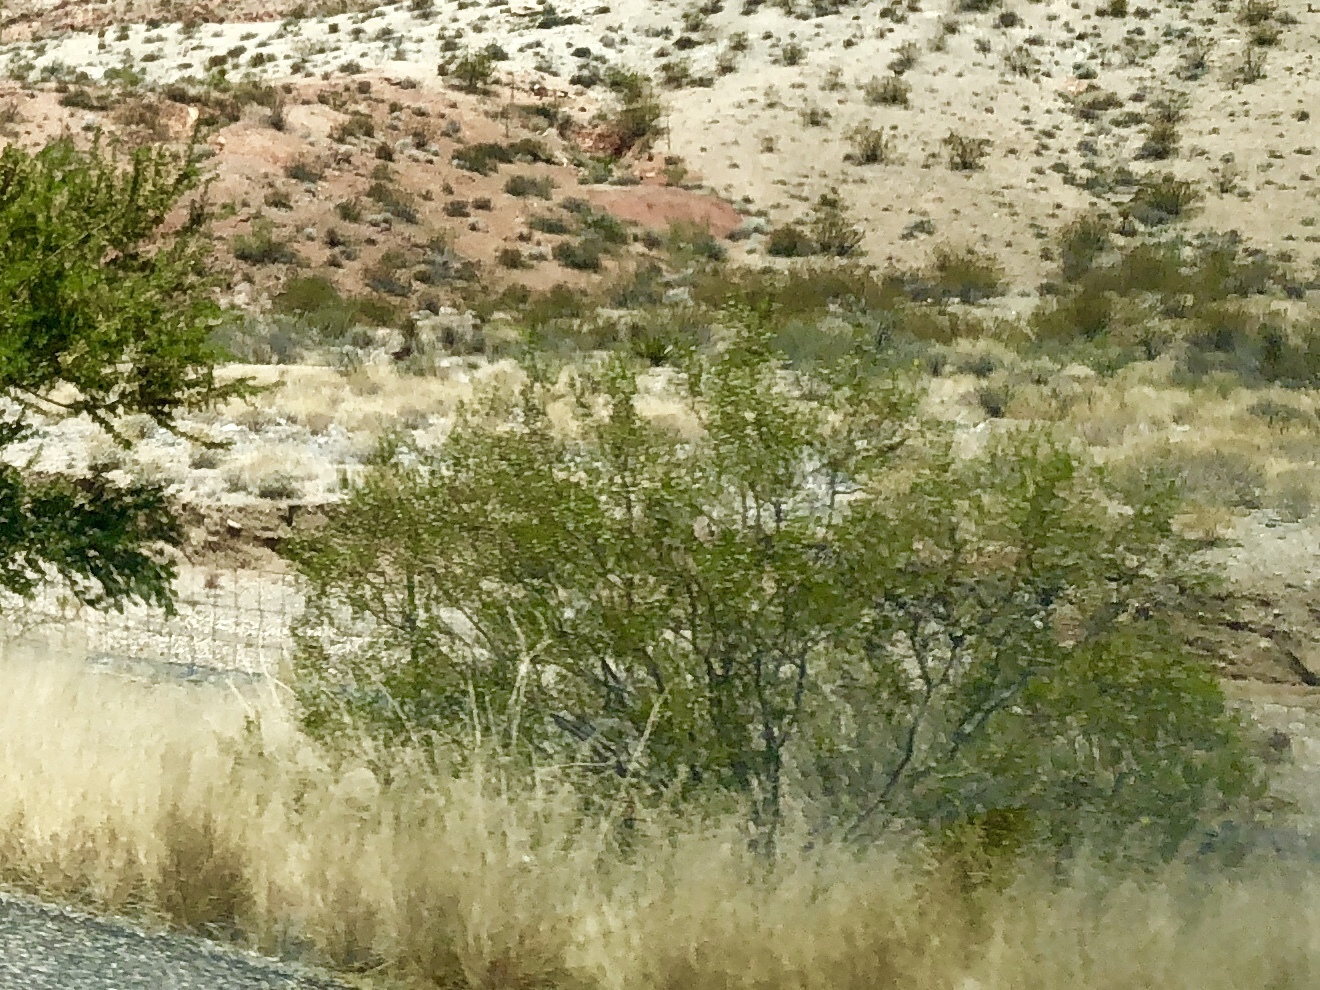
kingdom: Plantae
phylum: Tracheophyta
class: Magnoliopsida
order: Zygophyllales
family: Zygophyllaceae
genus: Larrea
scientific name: Larrea tridentata
